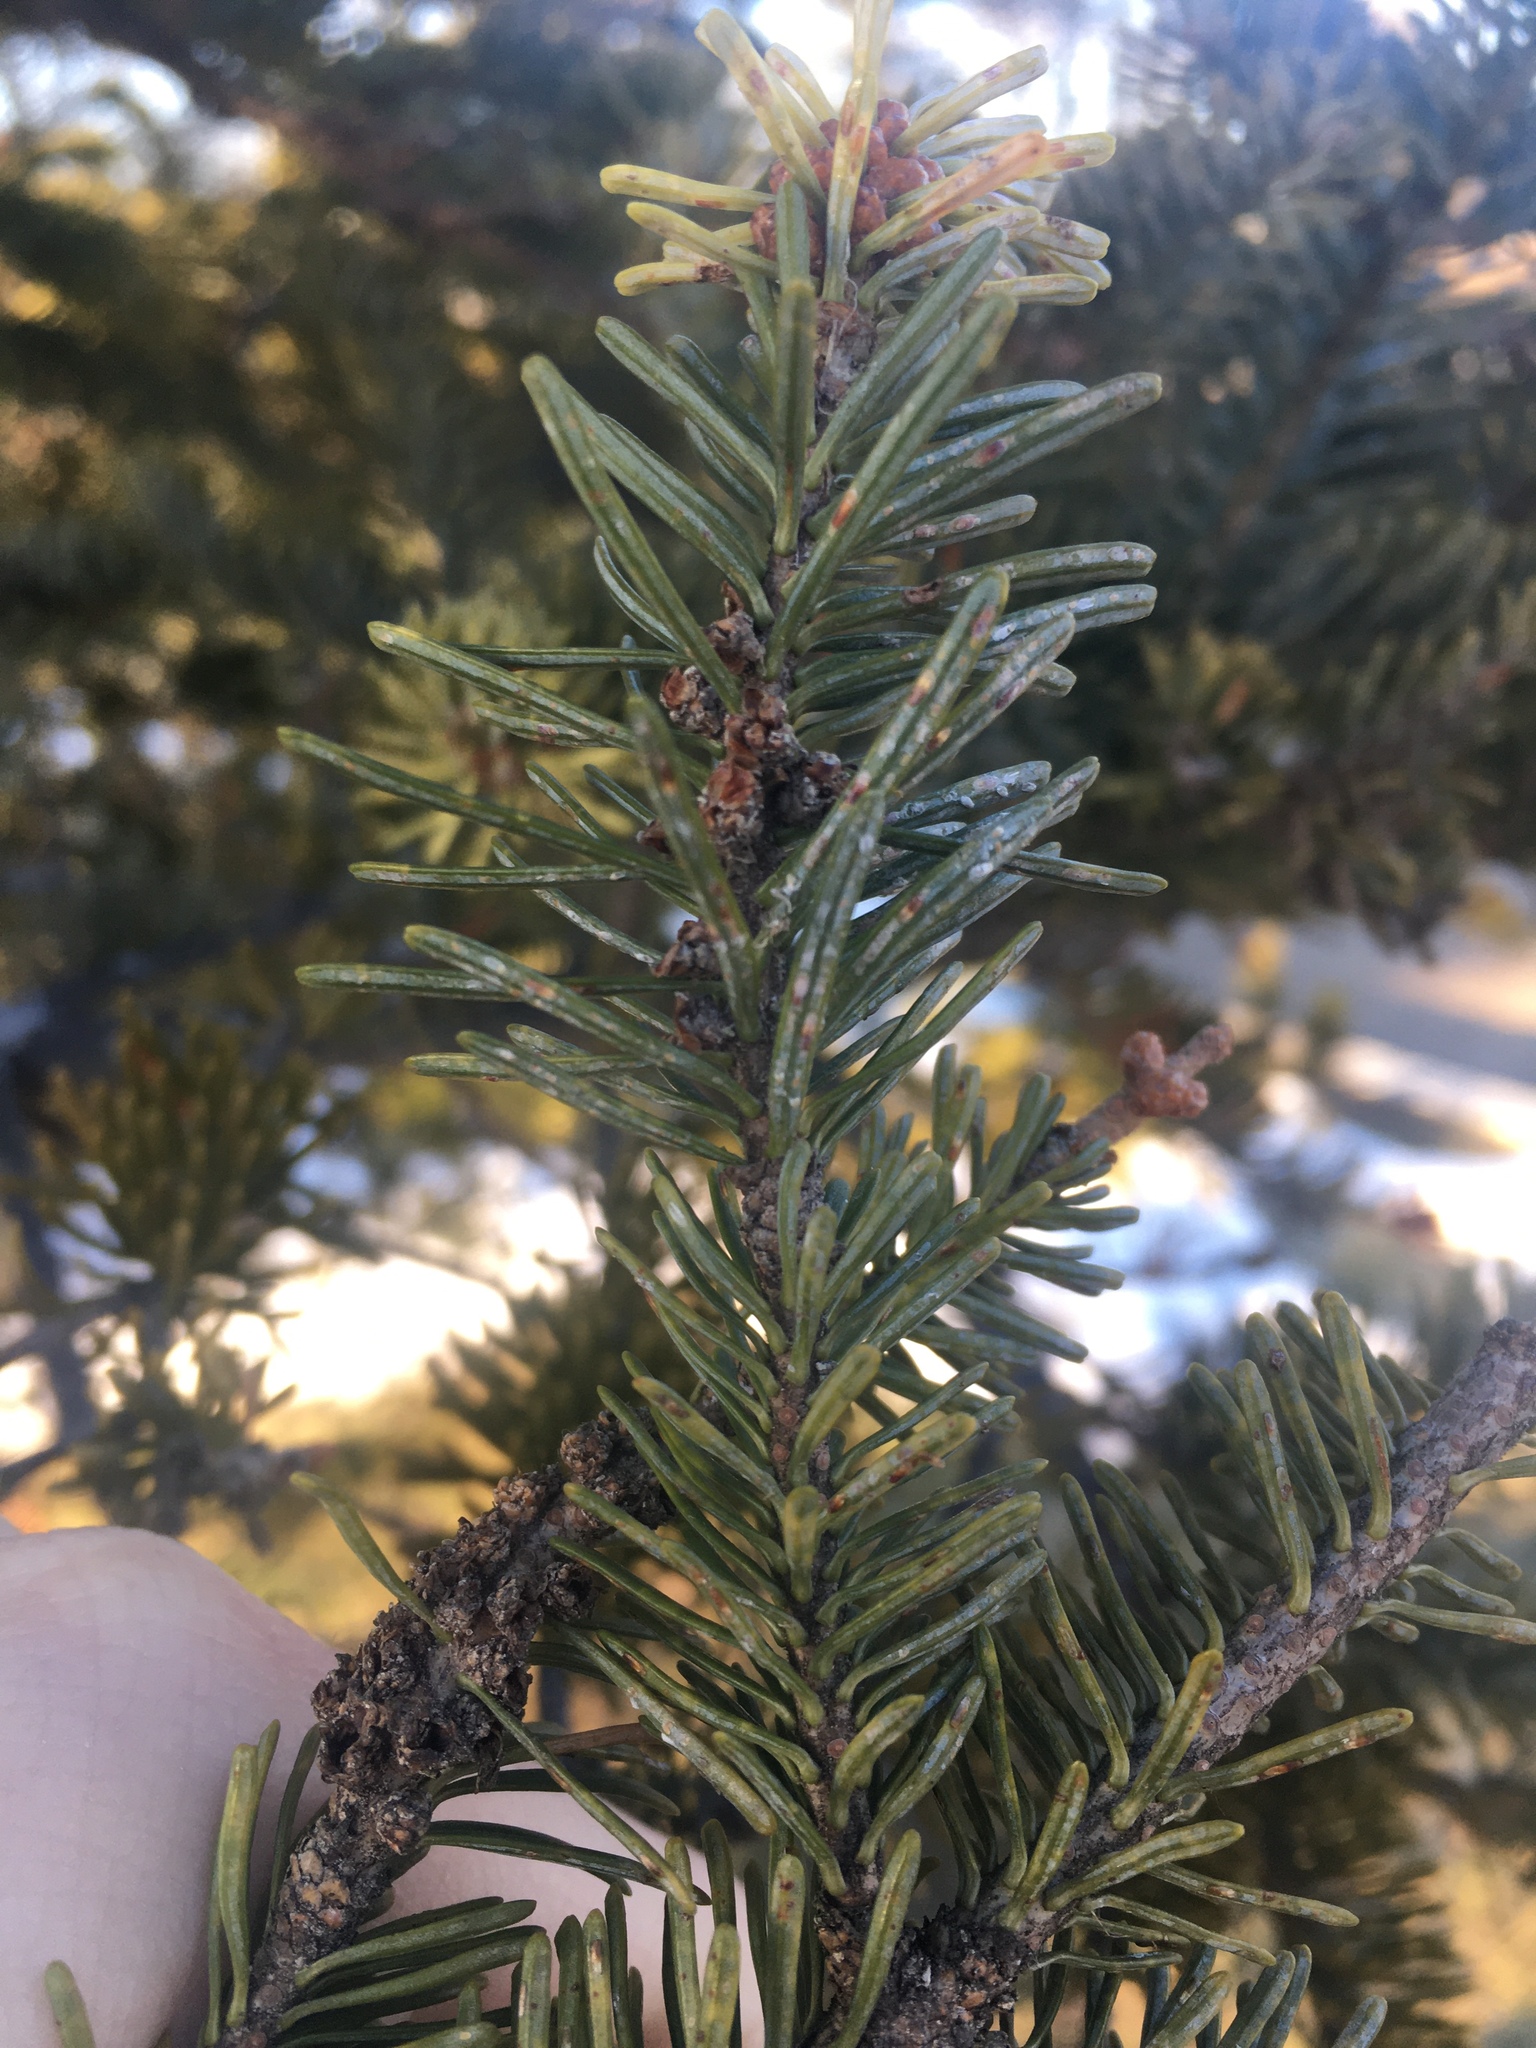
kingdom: Animalia
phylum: Arthropoda
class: Insecta
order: Hemiptera
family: Diaspididae
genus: Fiorinia
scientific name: Fiorinia externa
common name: Elongate hemlock scale
